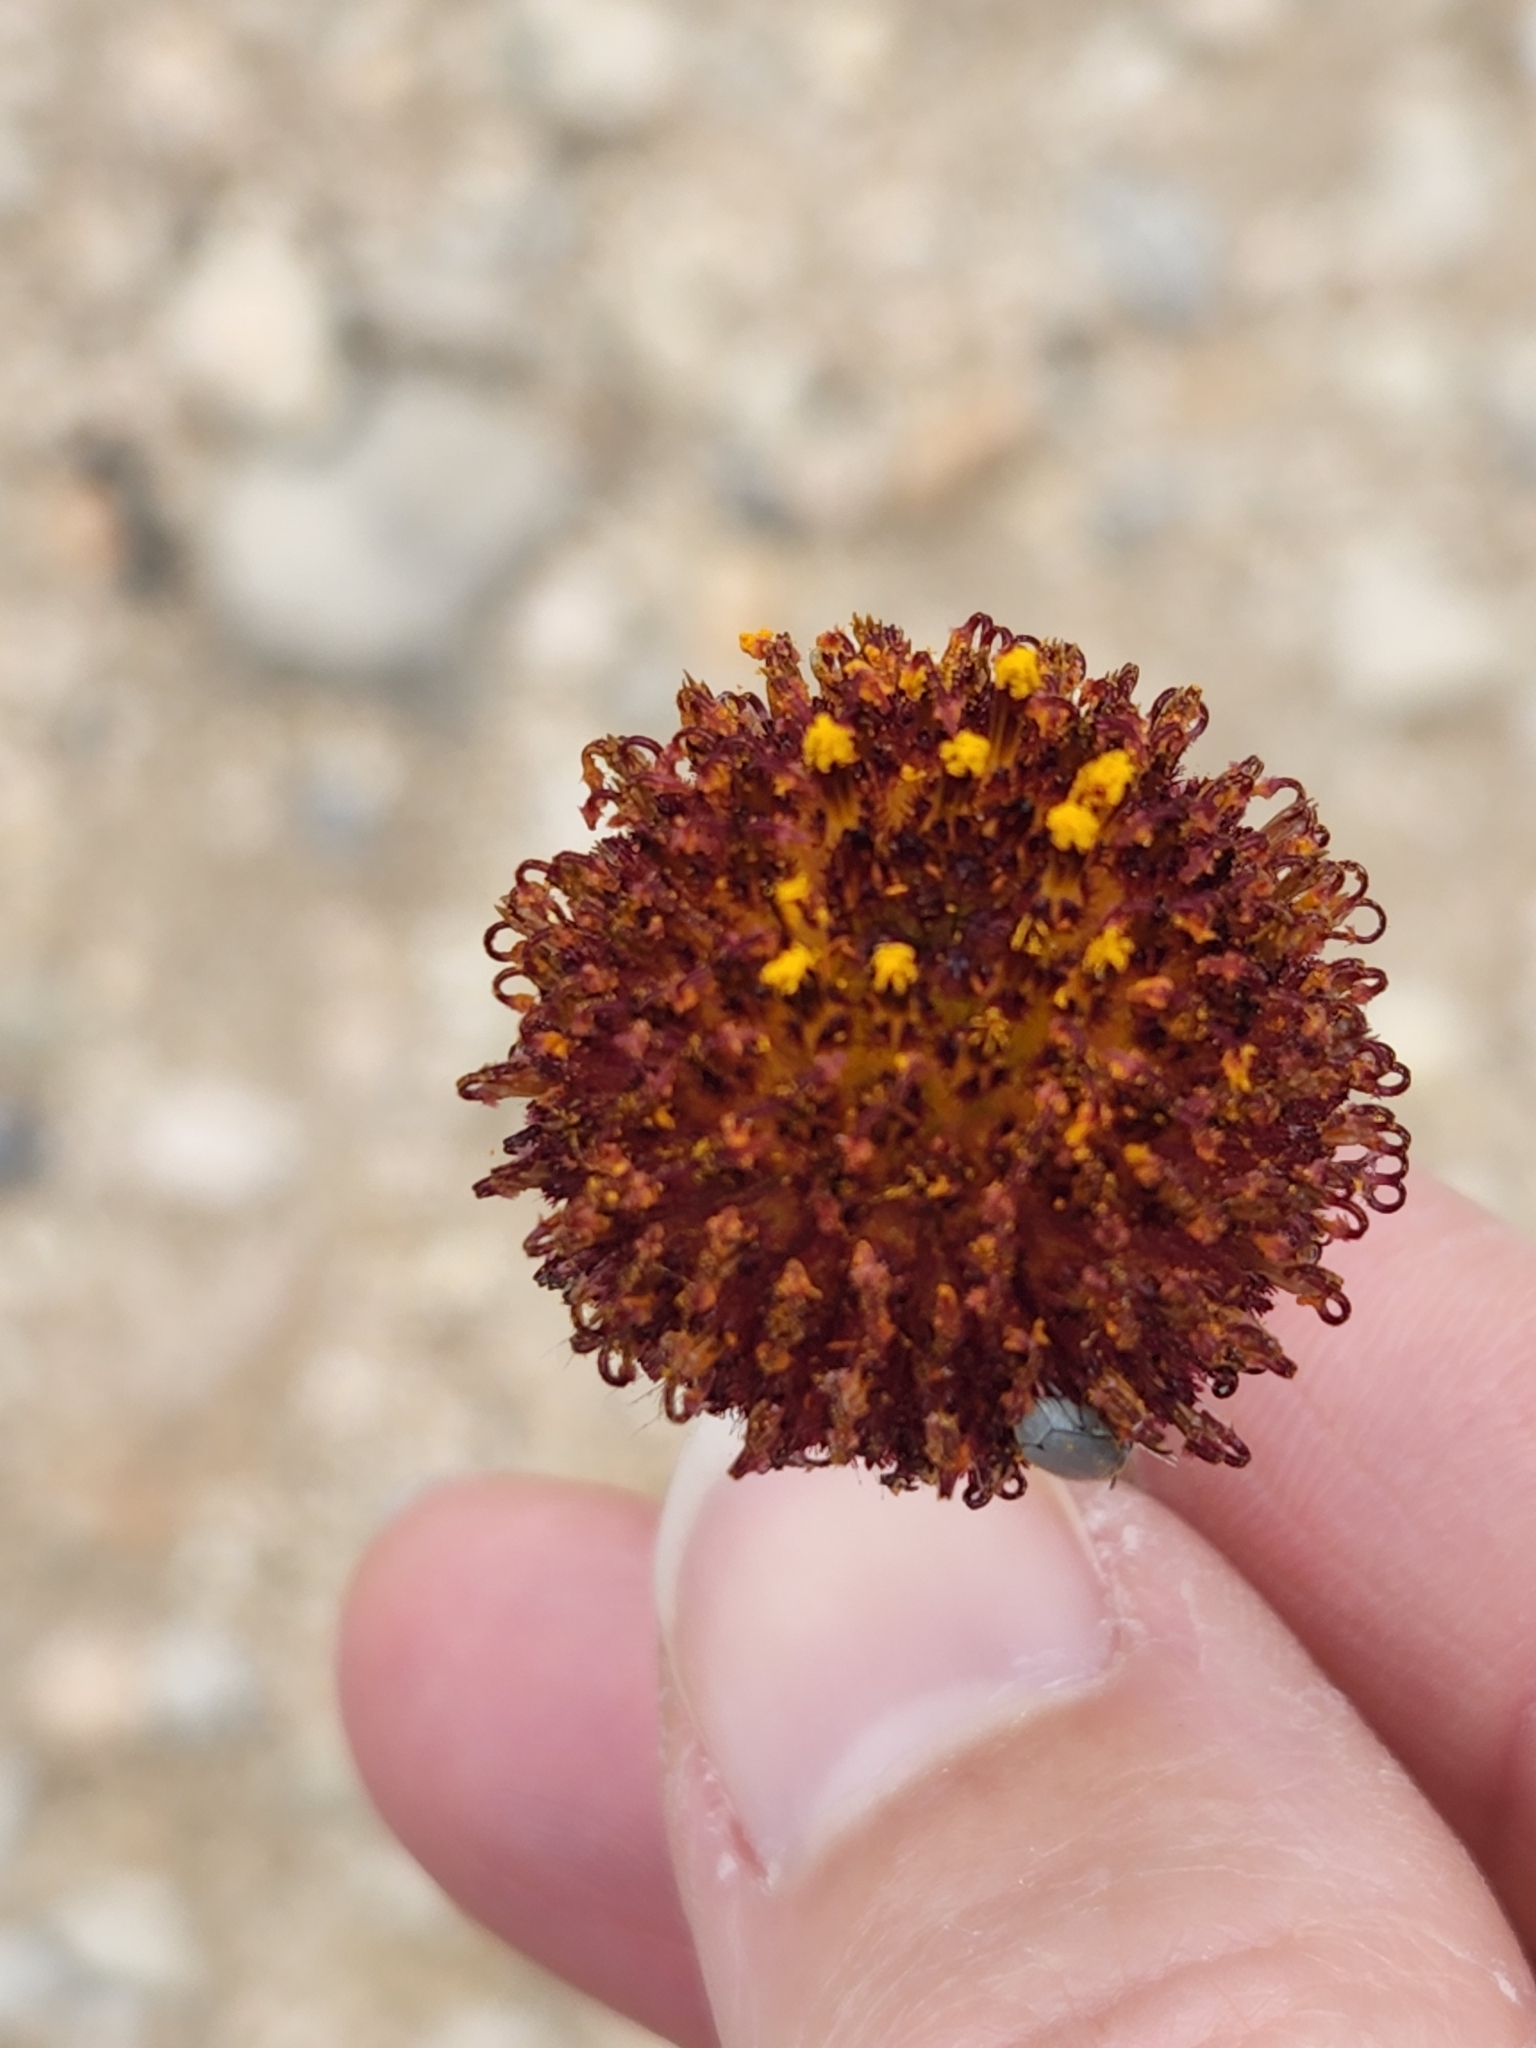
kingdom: Plantae
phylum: Tracheophyta
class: Magnoliopsida
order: Asterales
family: Asteraceae
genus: Gaillardia
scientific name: Gaillardia suavis
